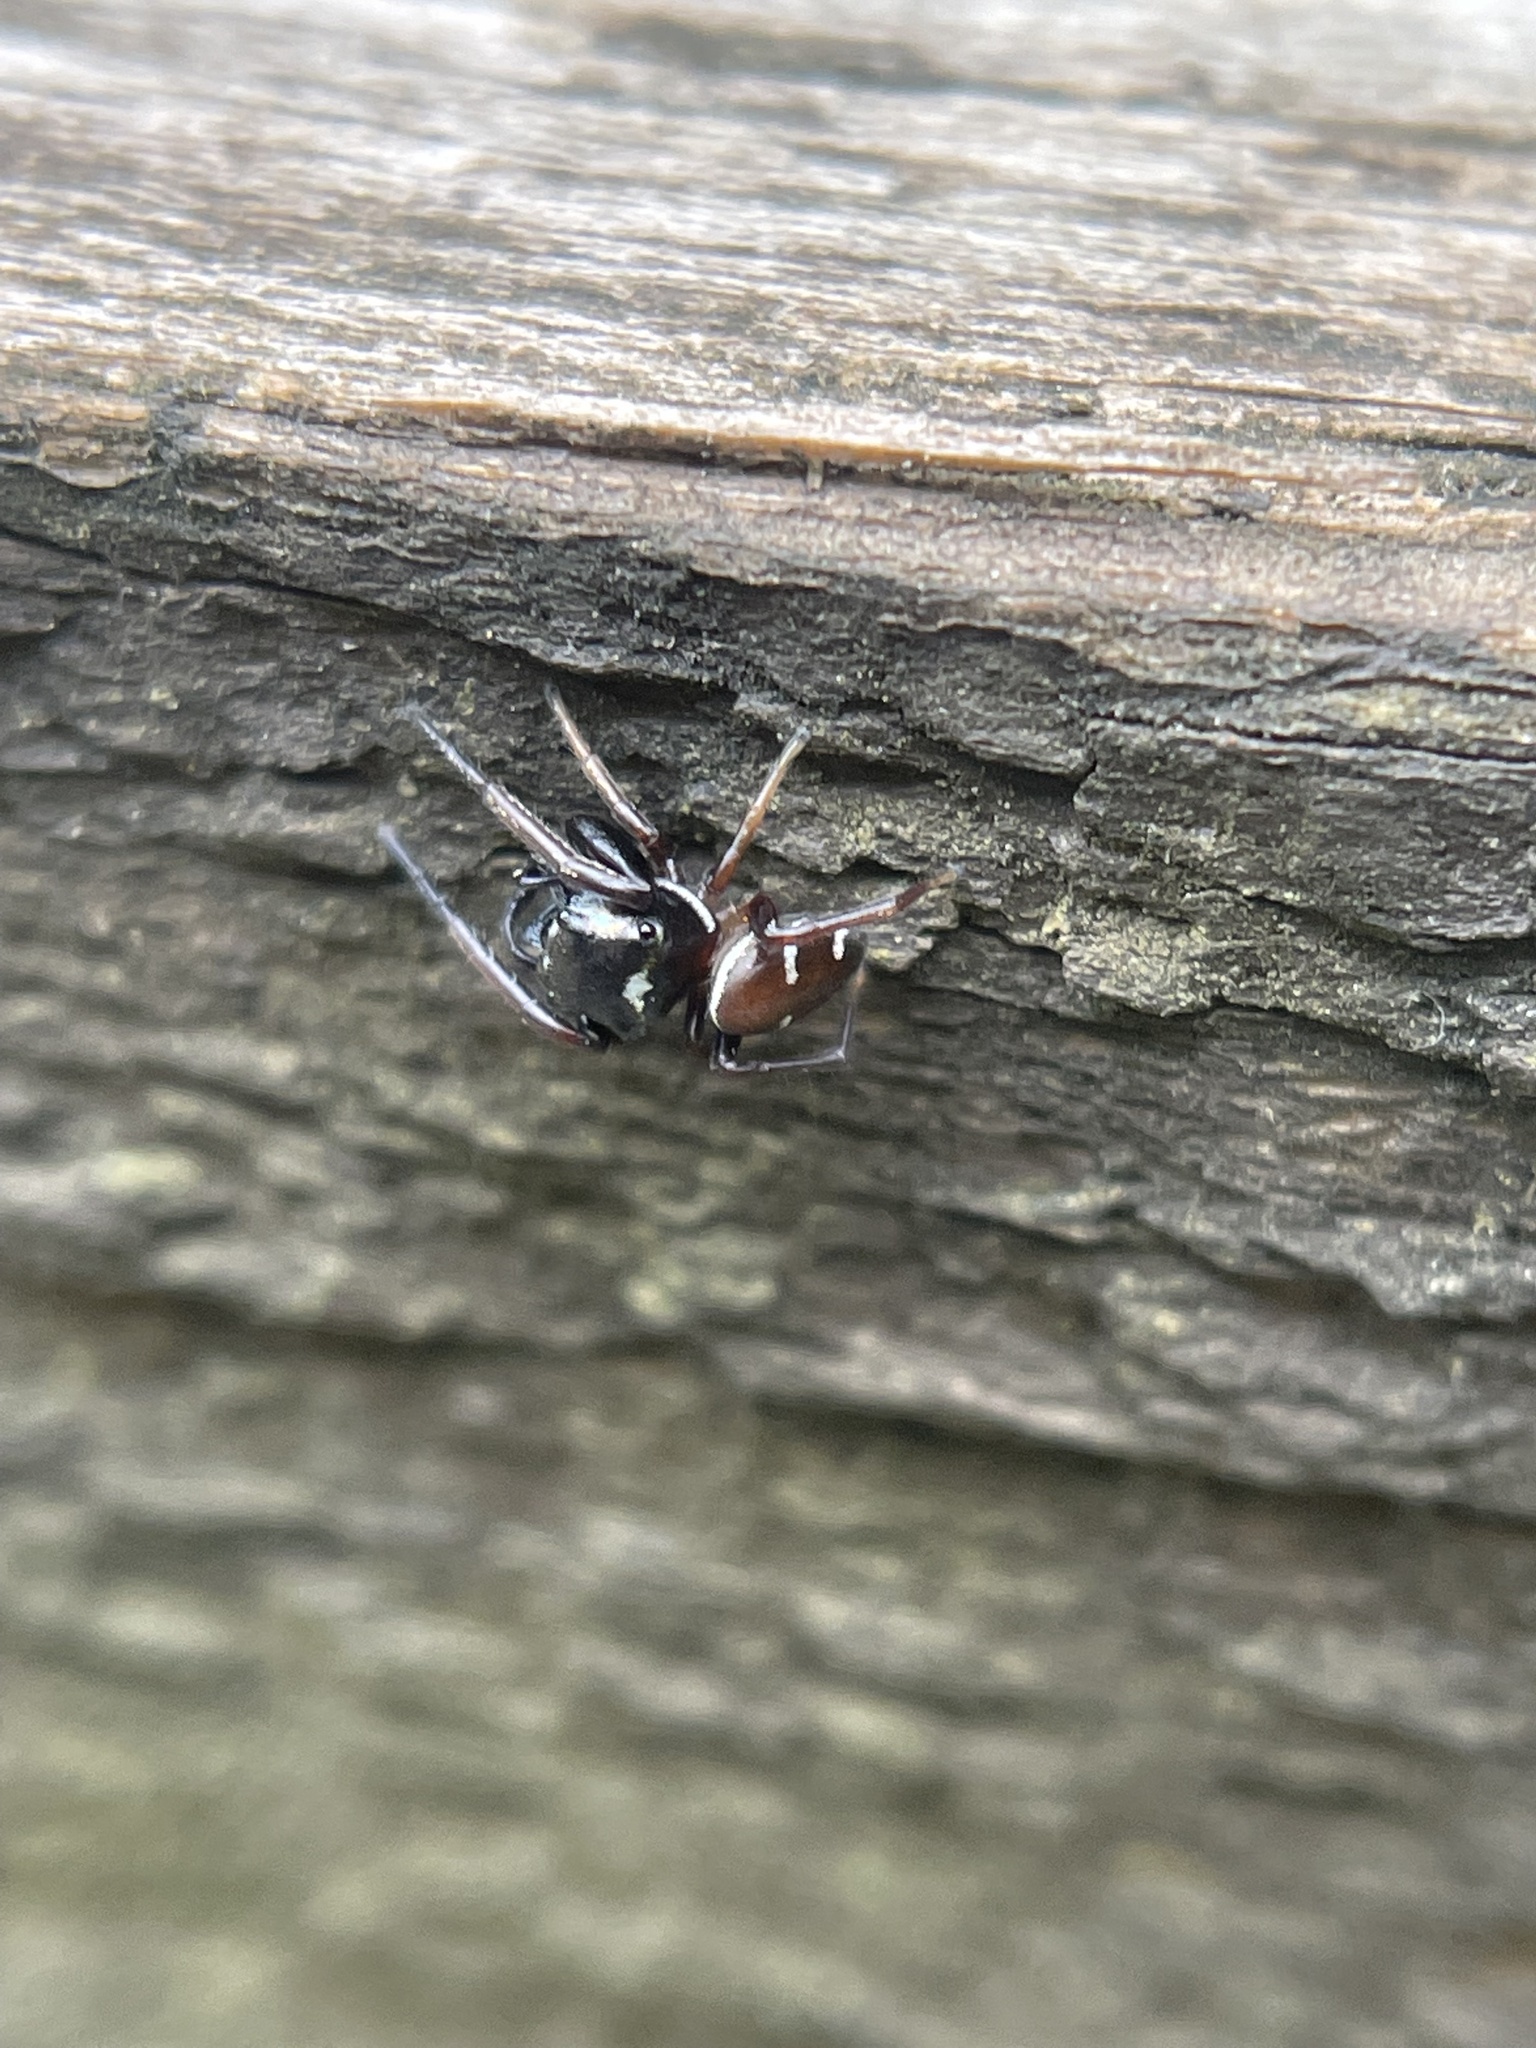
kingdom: Animalia
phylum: Arthropoda
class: Arachnida
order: Araneae
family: Salticidae
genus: Zygoballus
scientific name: Zygoballus sexpunctatus
